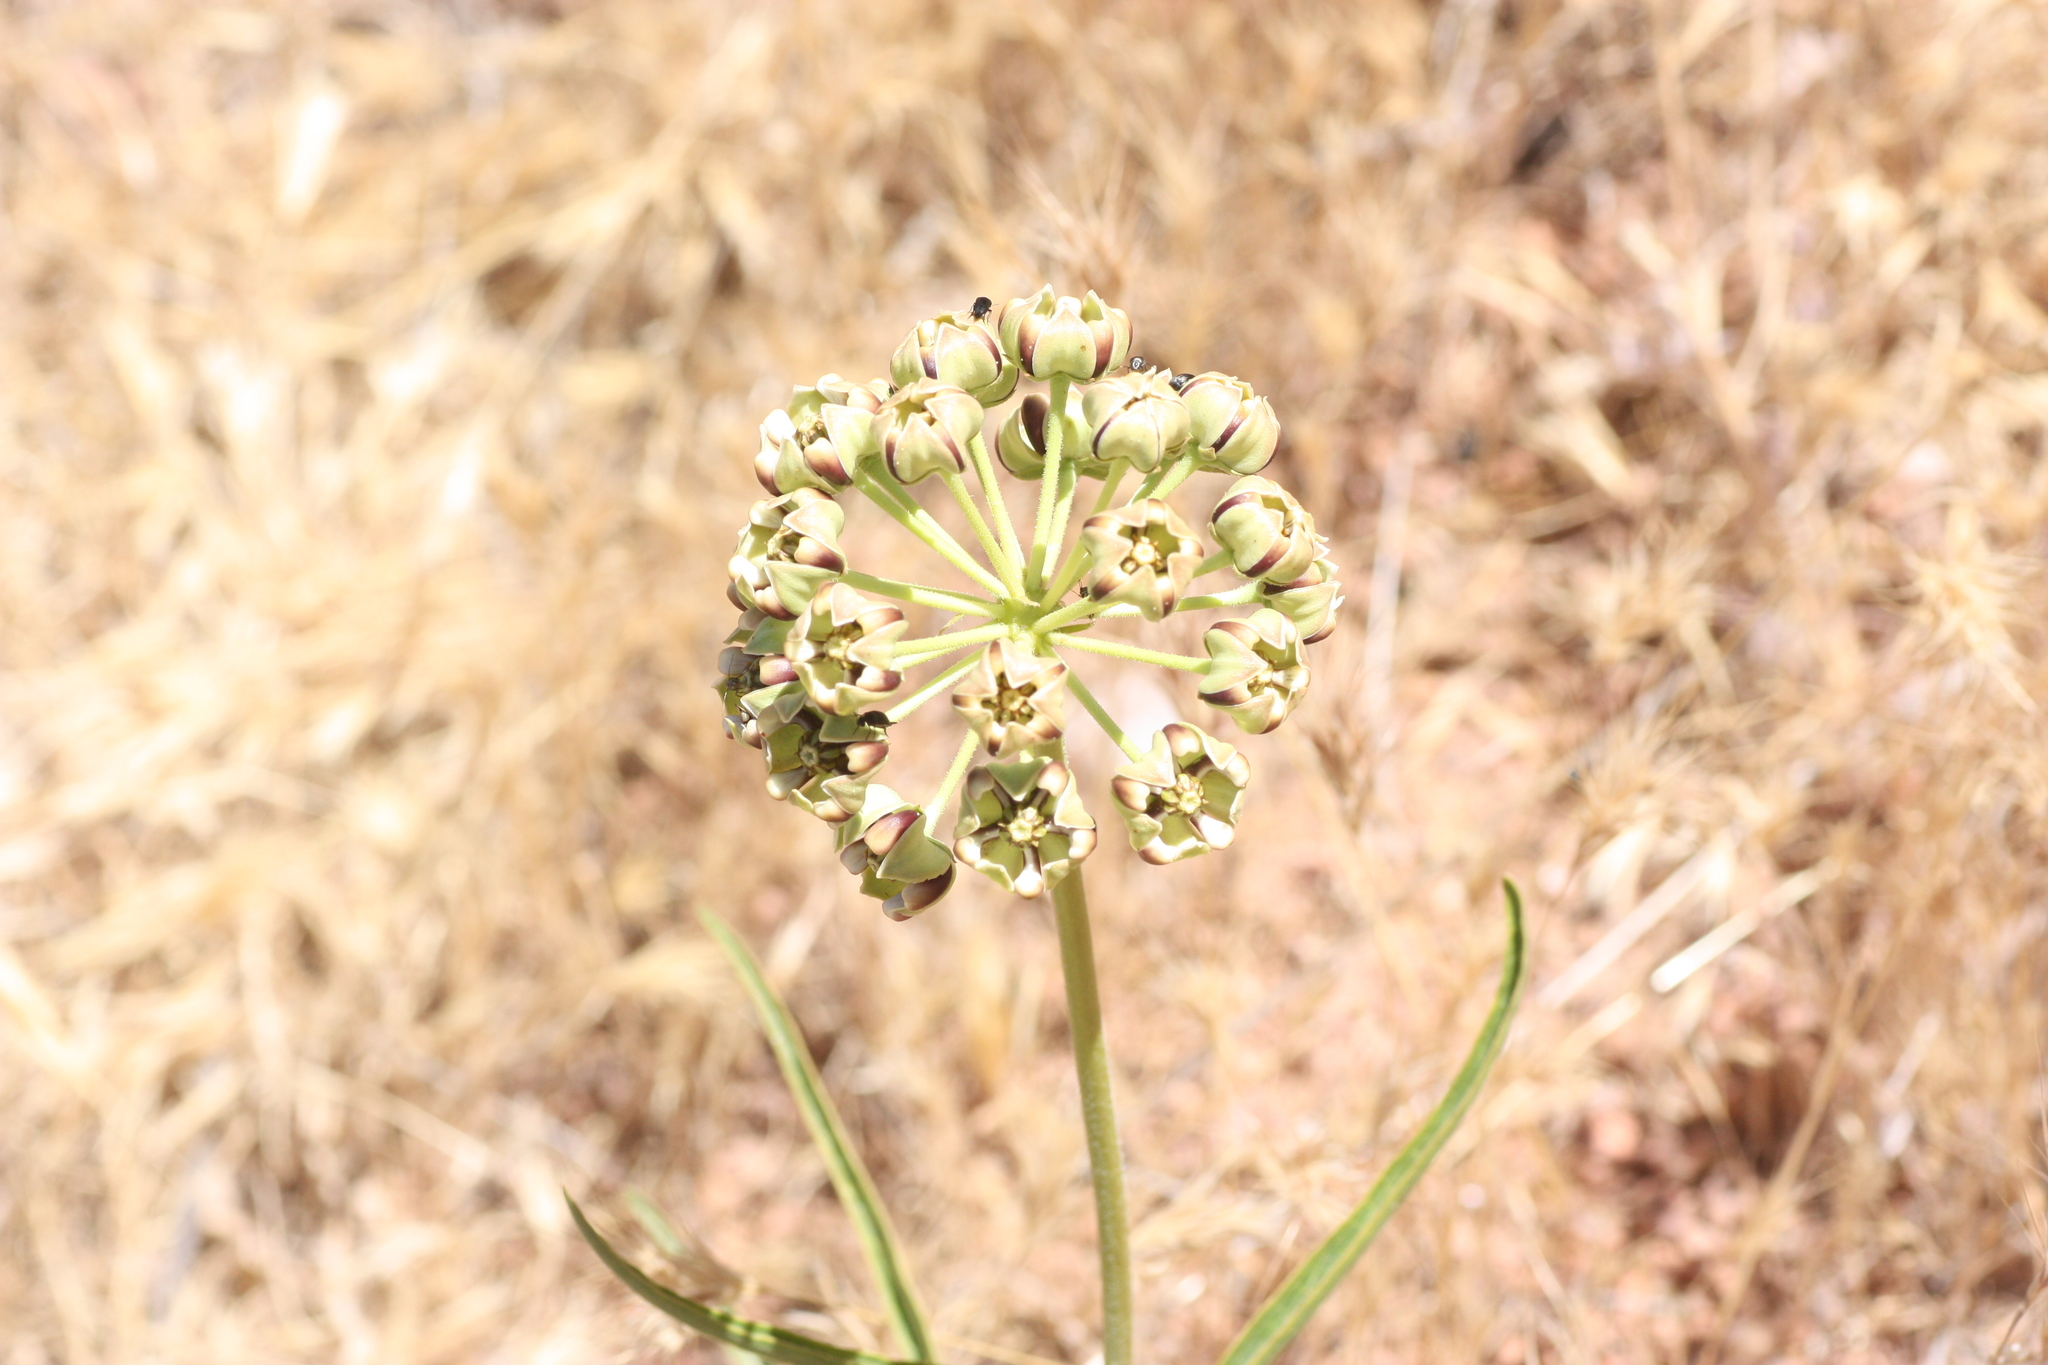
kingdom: Plantae
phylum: Tracheophyta
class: Magnoliopsida
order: Gentianales
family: Apocynaceae
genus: Asclepias
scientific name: Asclepias asperula
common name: Antelope horns
